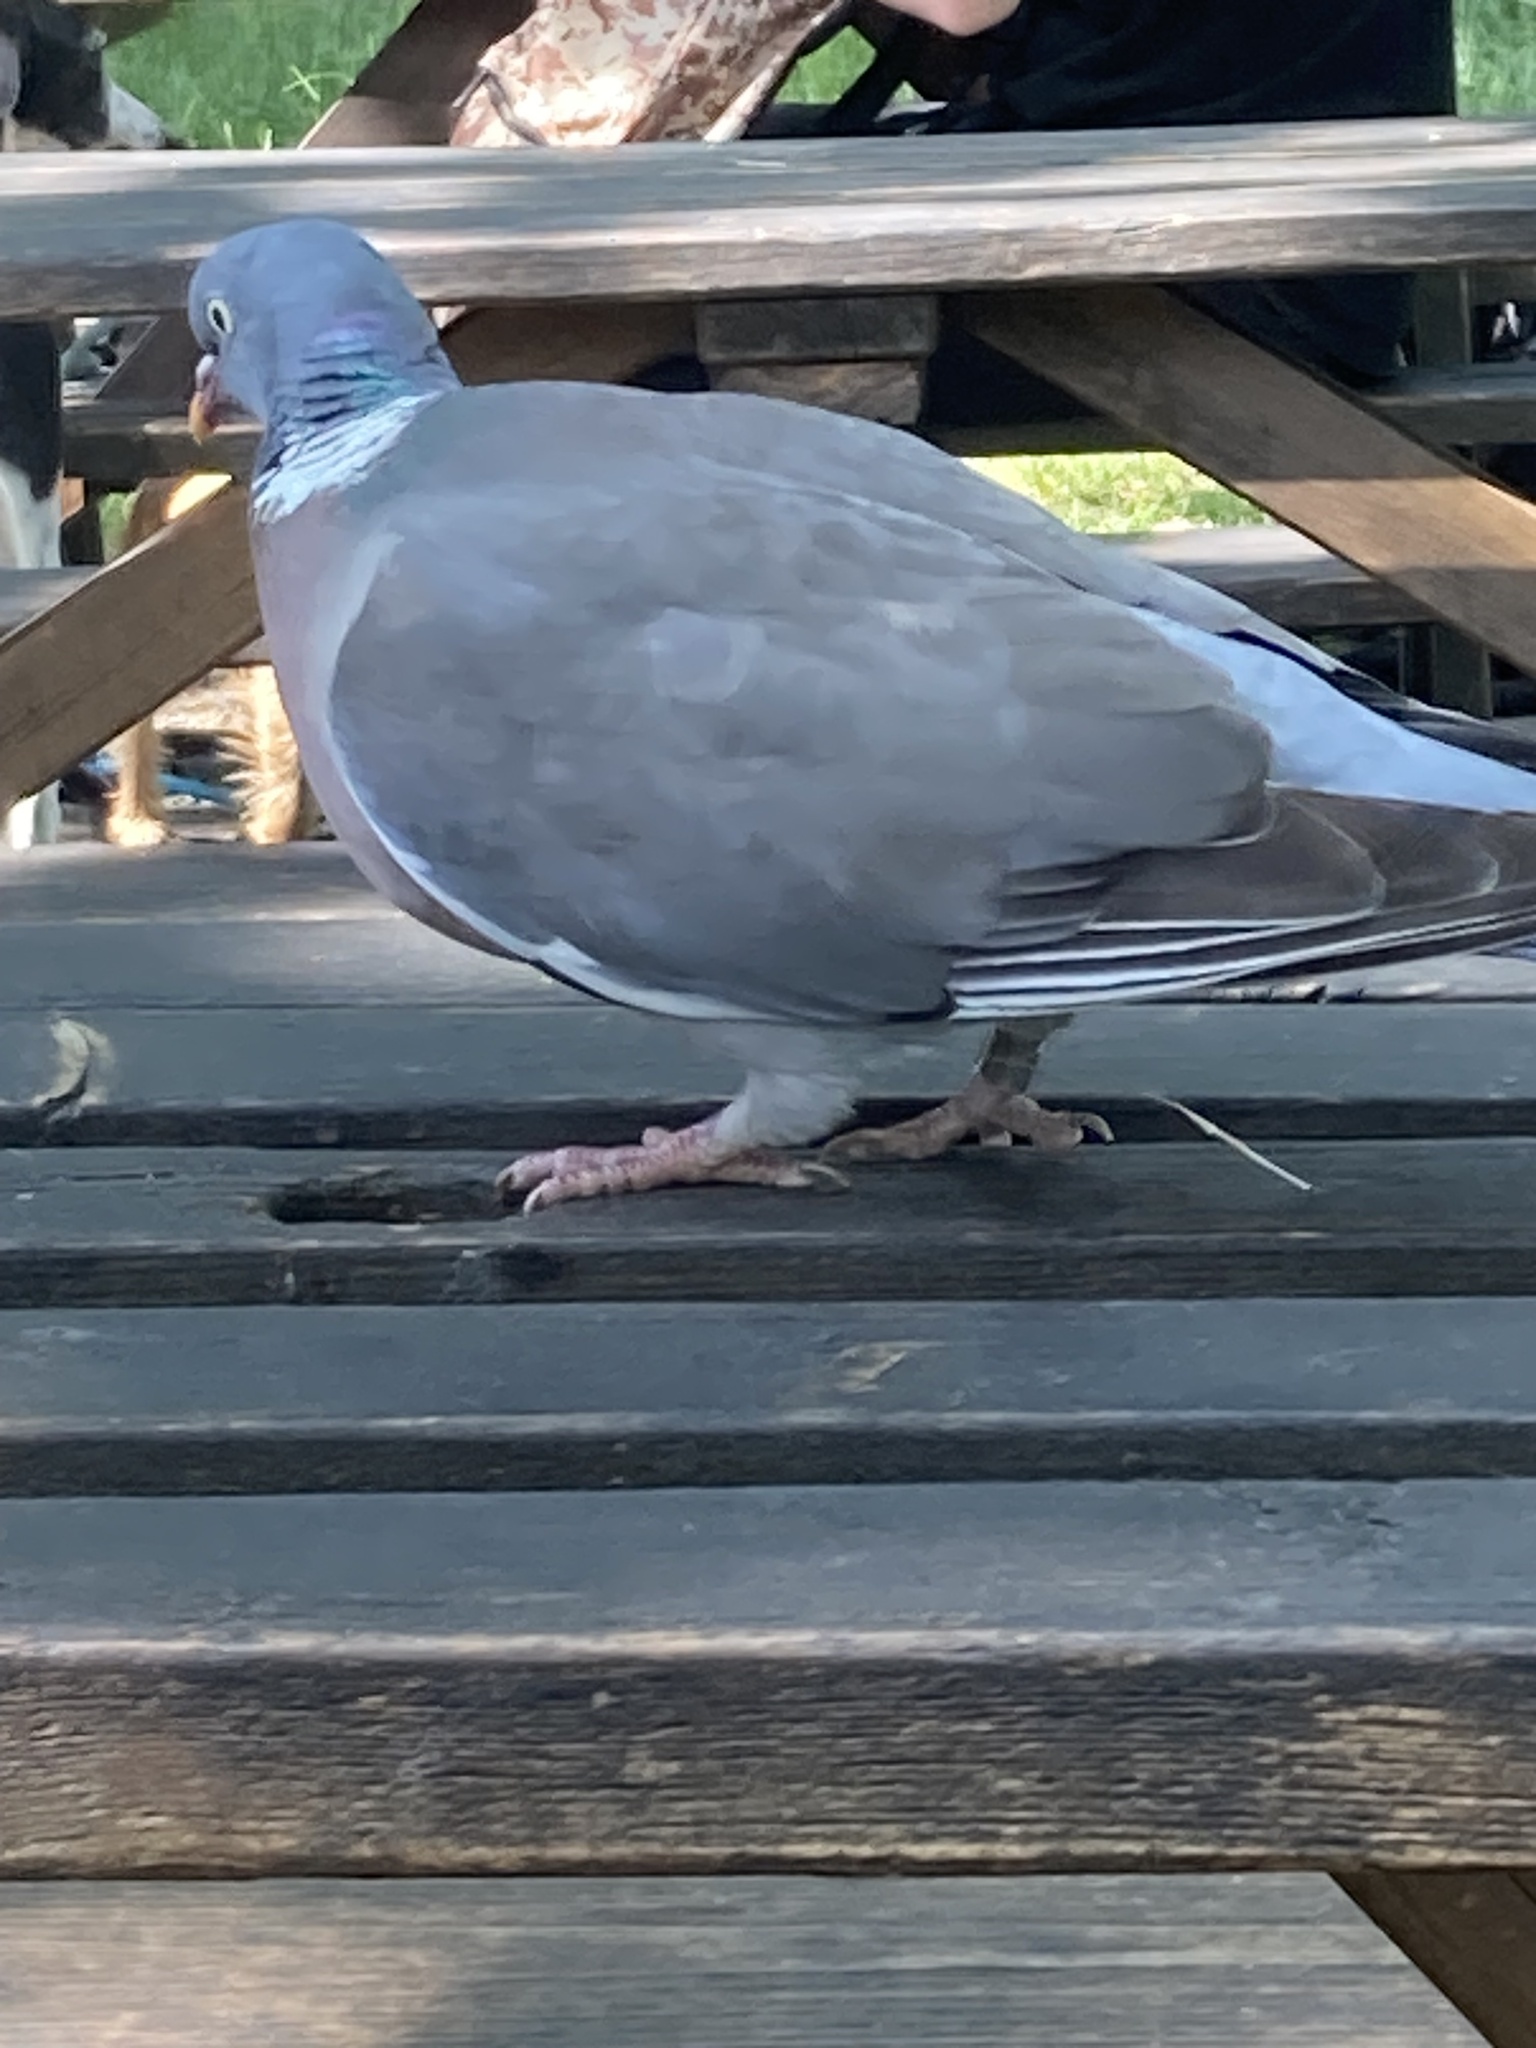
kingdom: Animalia
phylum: Chordata
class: Aves
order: Columbiformes
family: Columbidae
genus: Columba
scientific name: Columba palumbus
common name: Common wood pigeon
